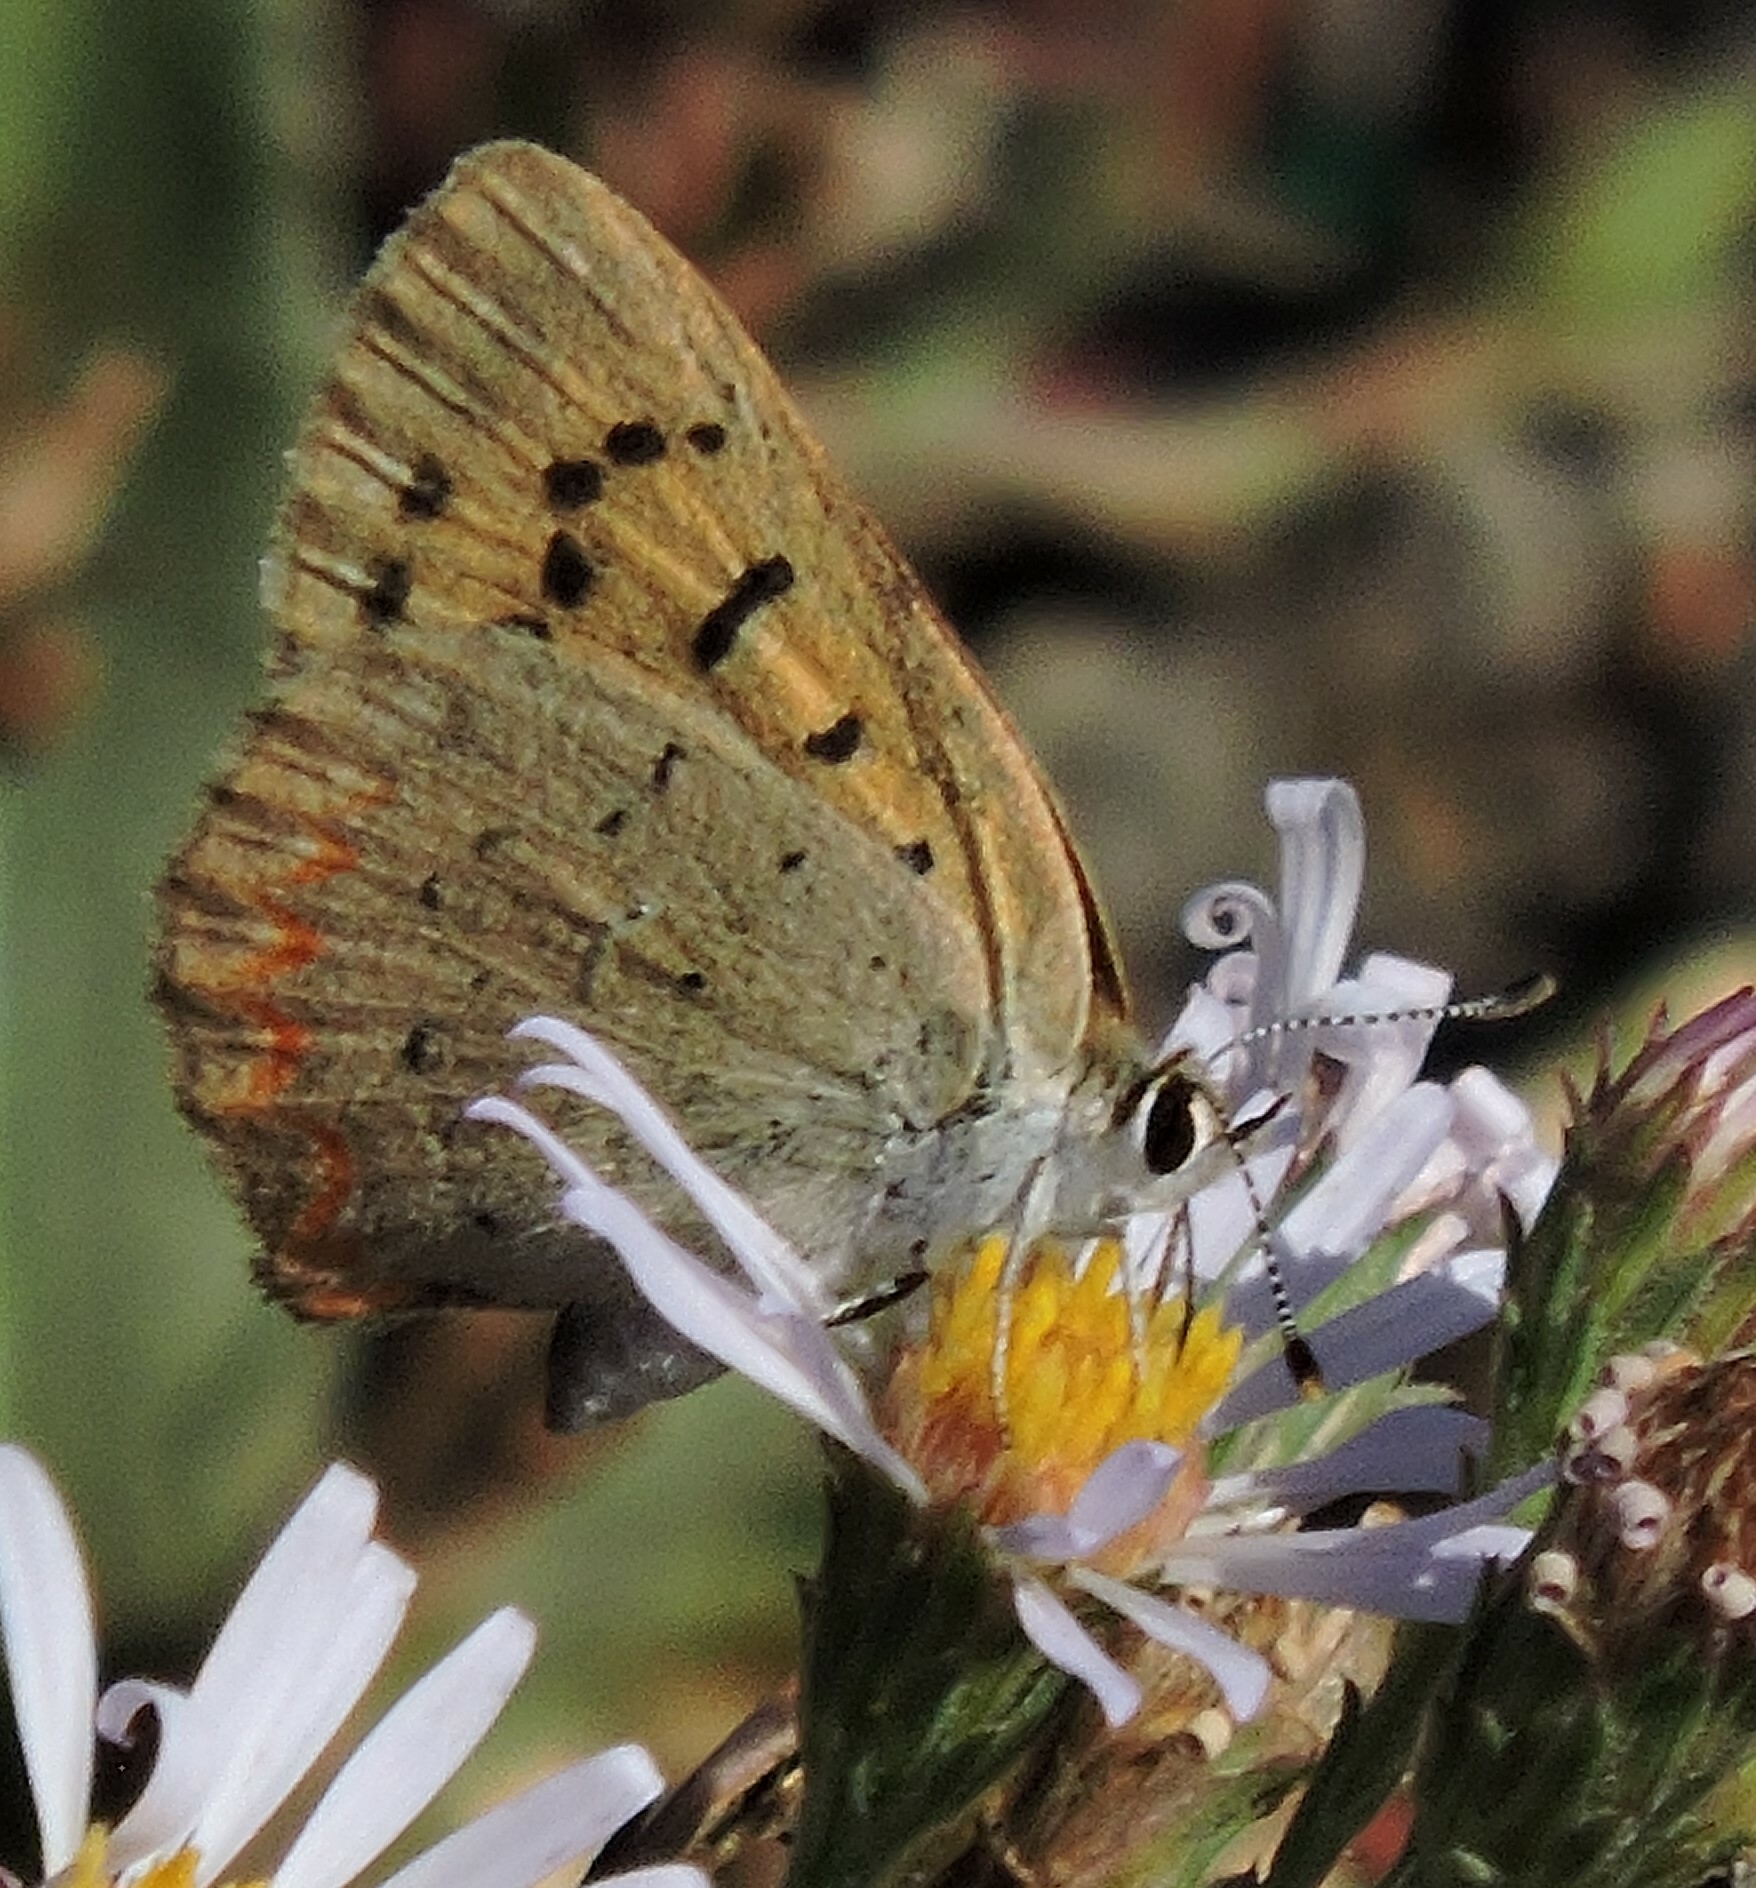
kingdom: Animalia
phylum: Arthropoda
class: Insecta
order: Lepidoptera
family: Lycaenidae
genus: Tharsalea
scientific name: Tharsalea helloides
